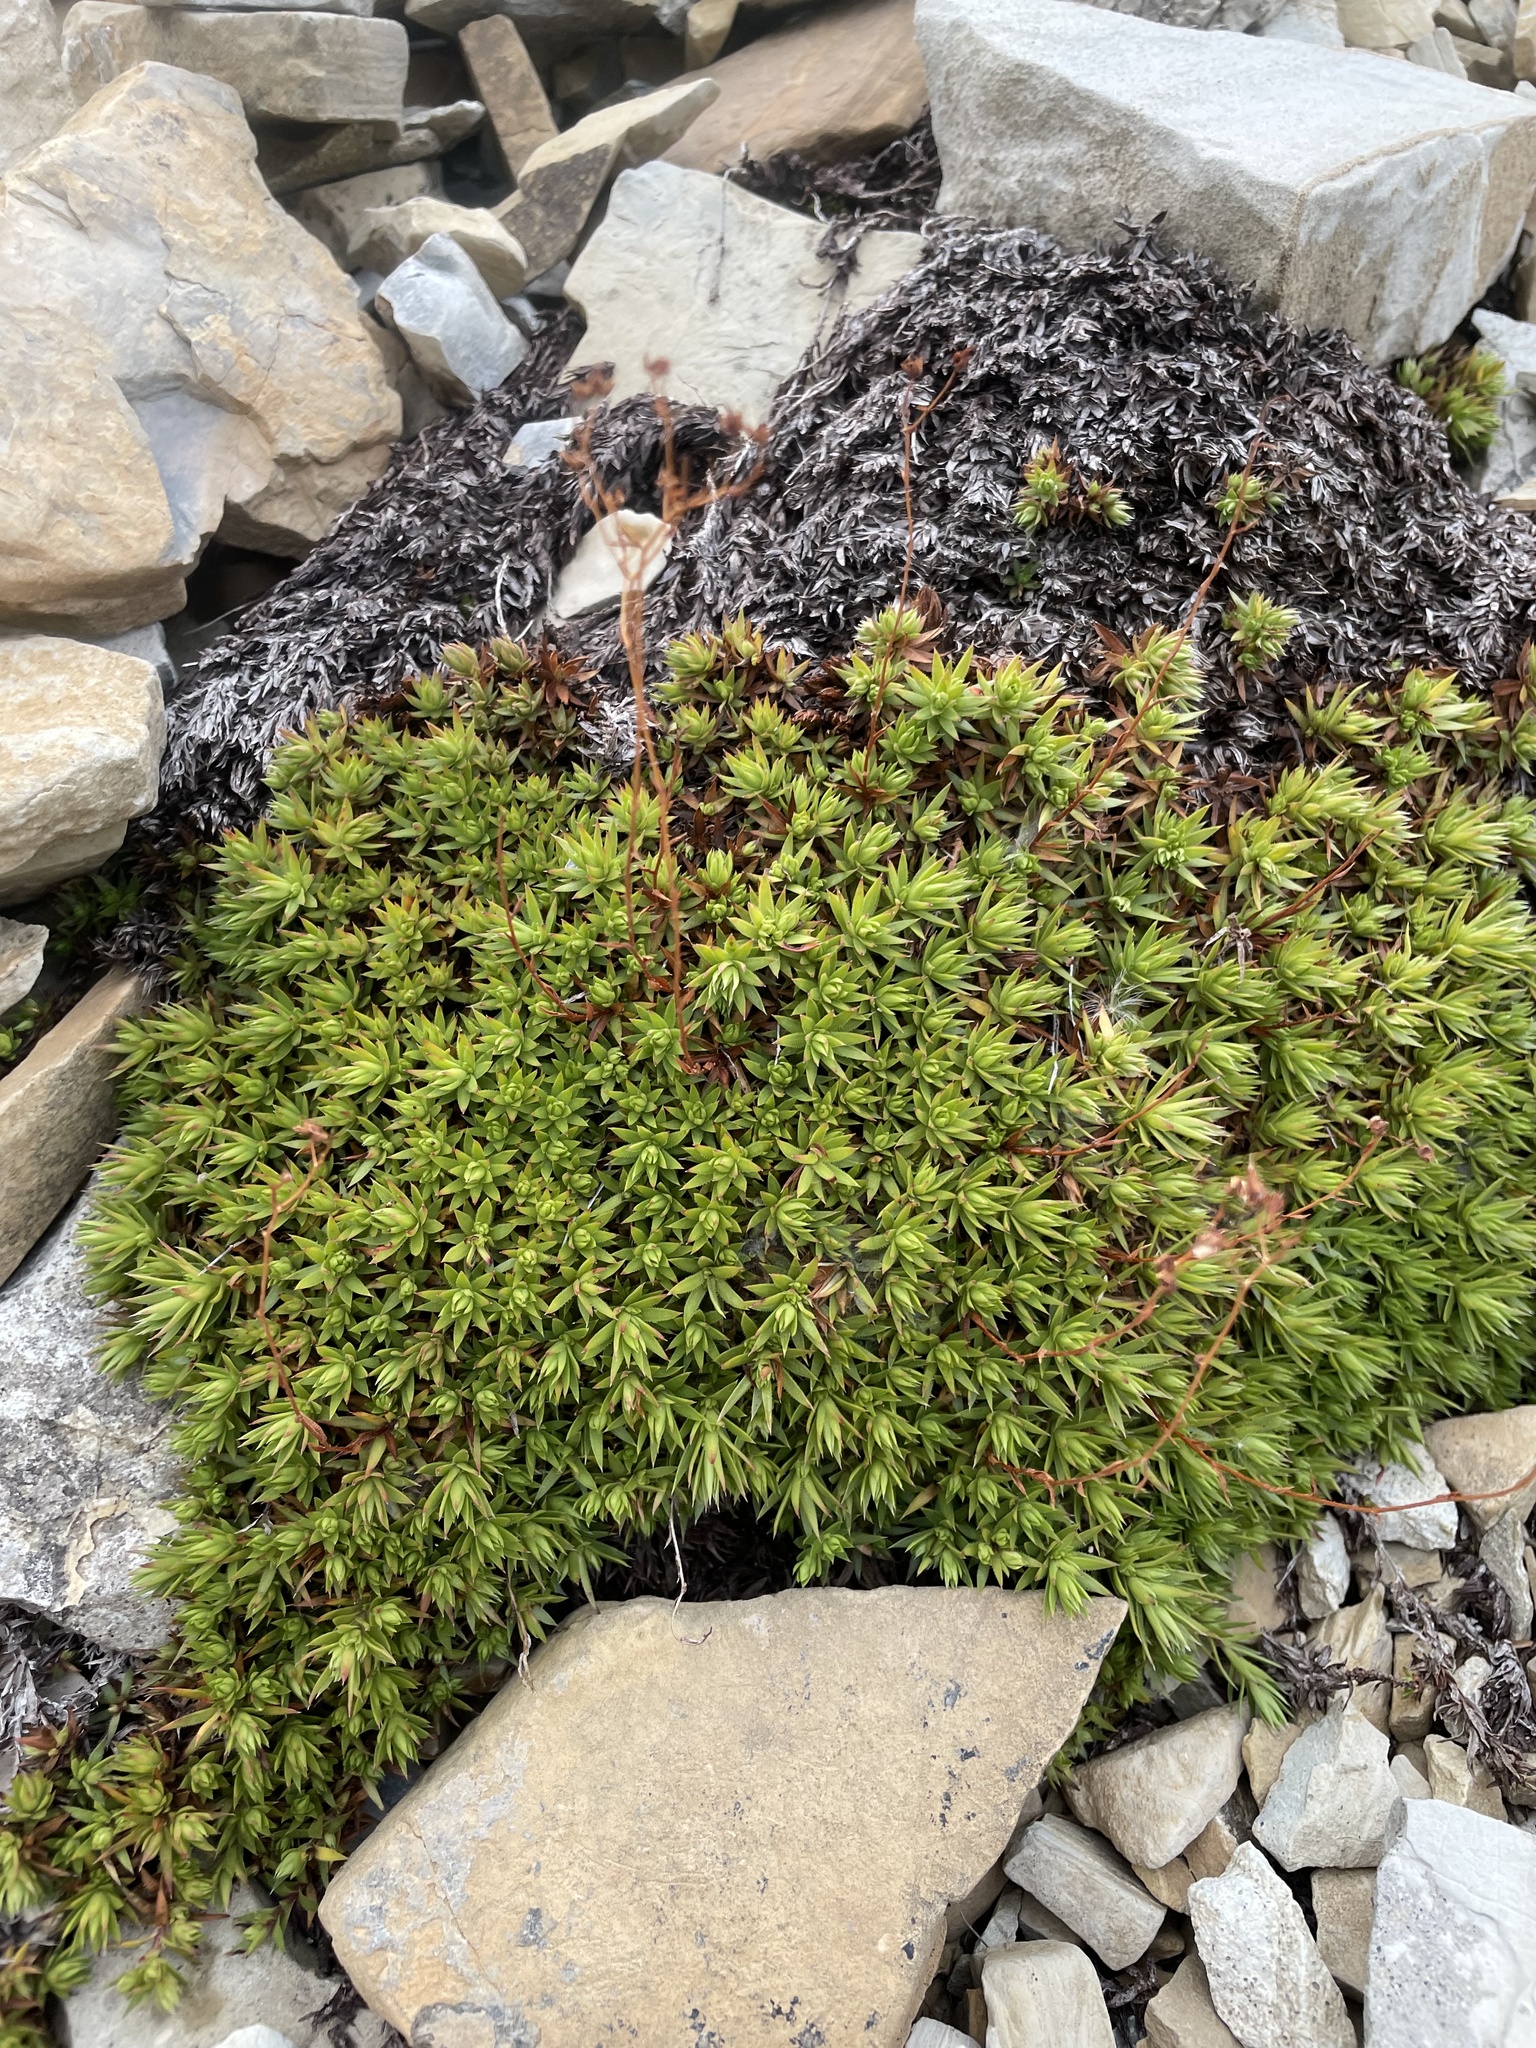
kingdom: Plantae
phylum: Tracheophyta
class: Magnoliopsida
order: Saxifragales
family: Saxifragaceae
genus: Saxifraga
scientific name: Saxifraga bronchialis
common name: Matted saxifrage
